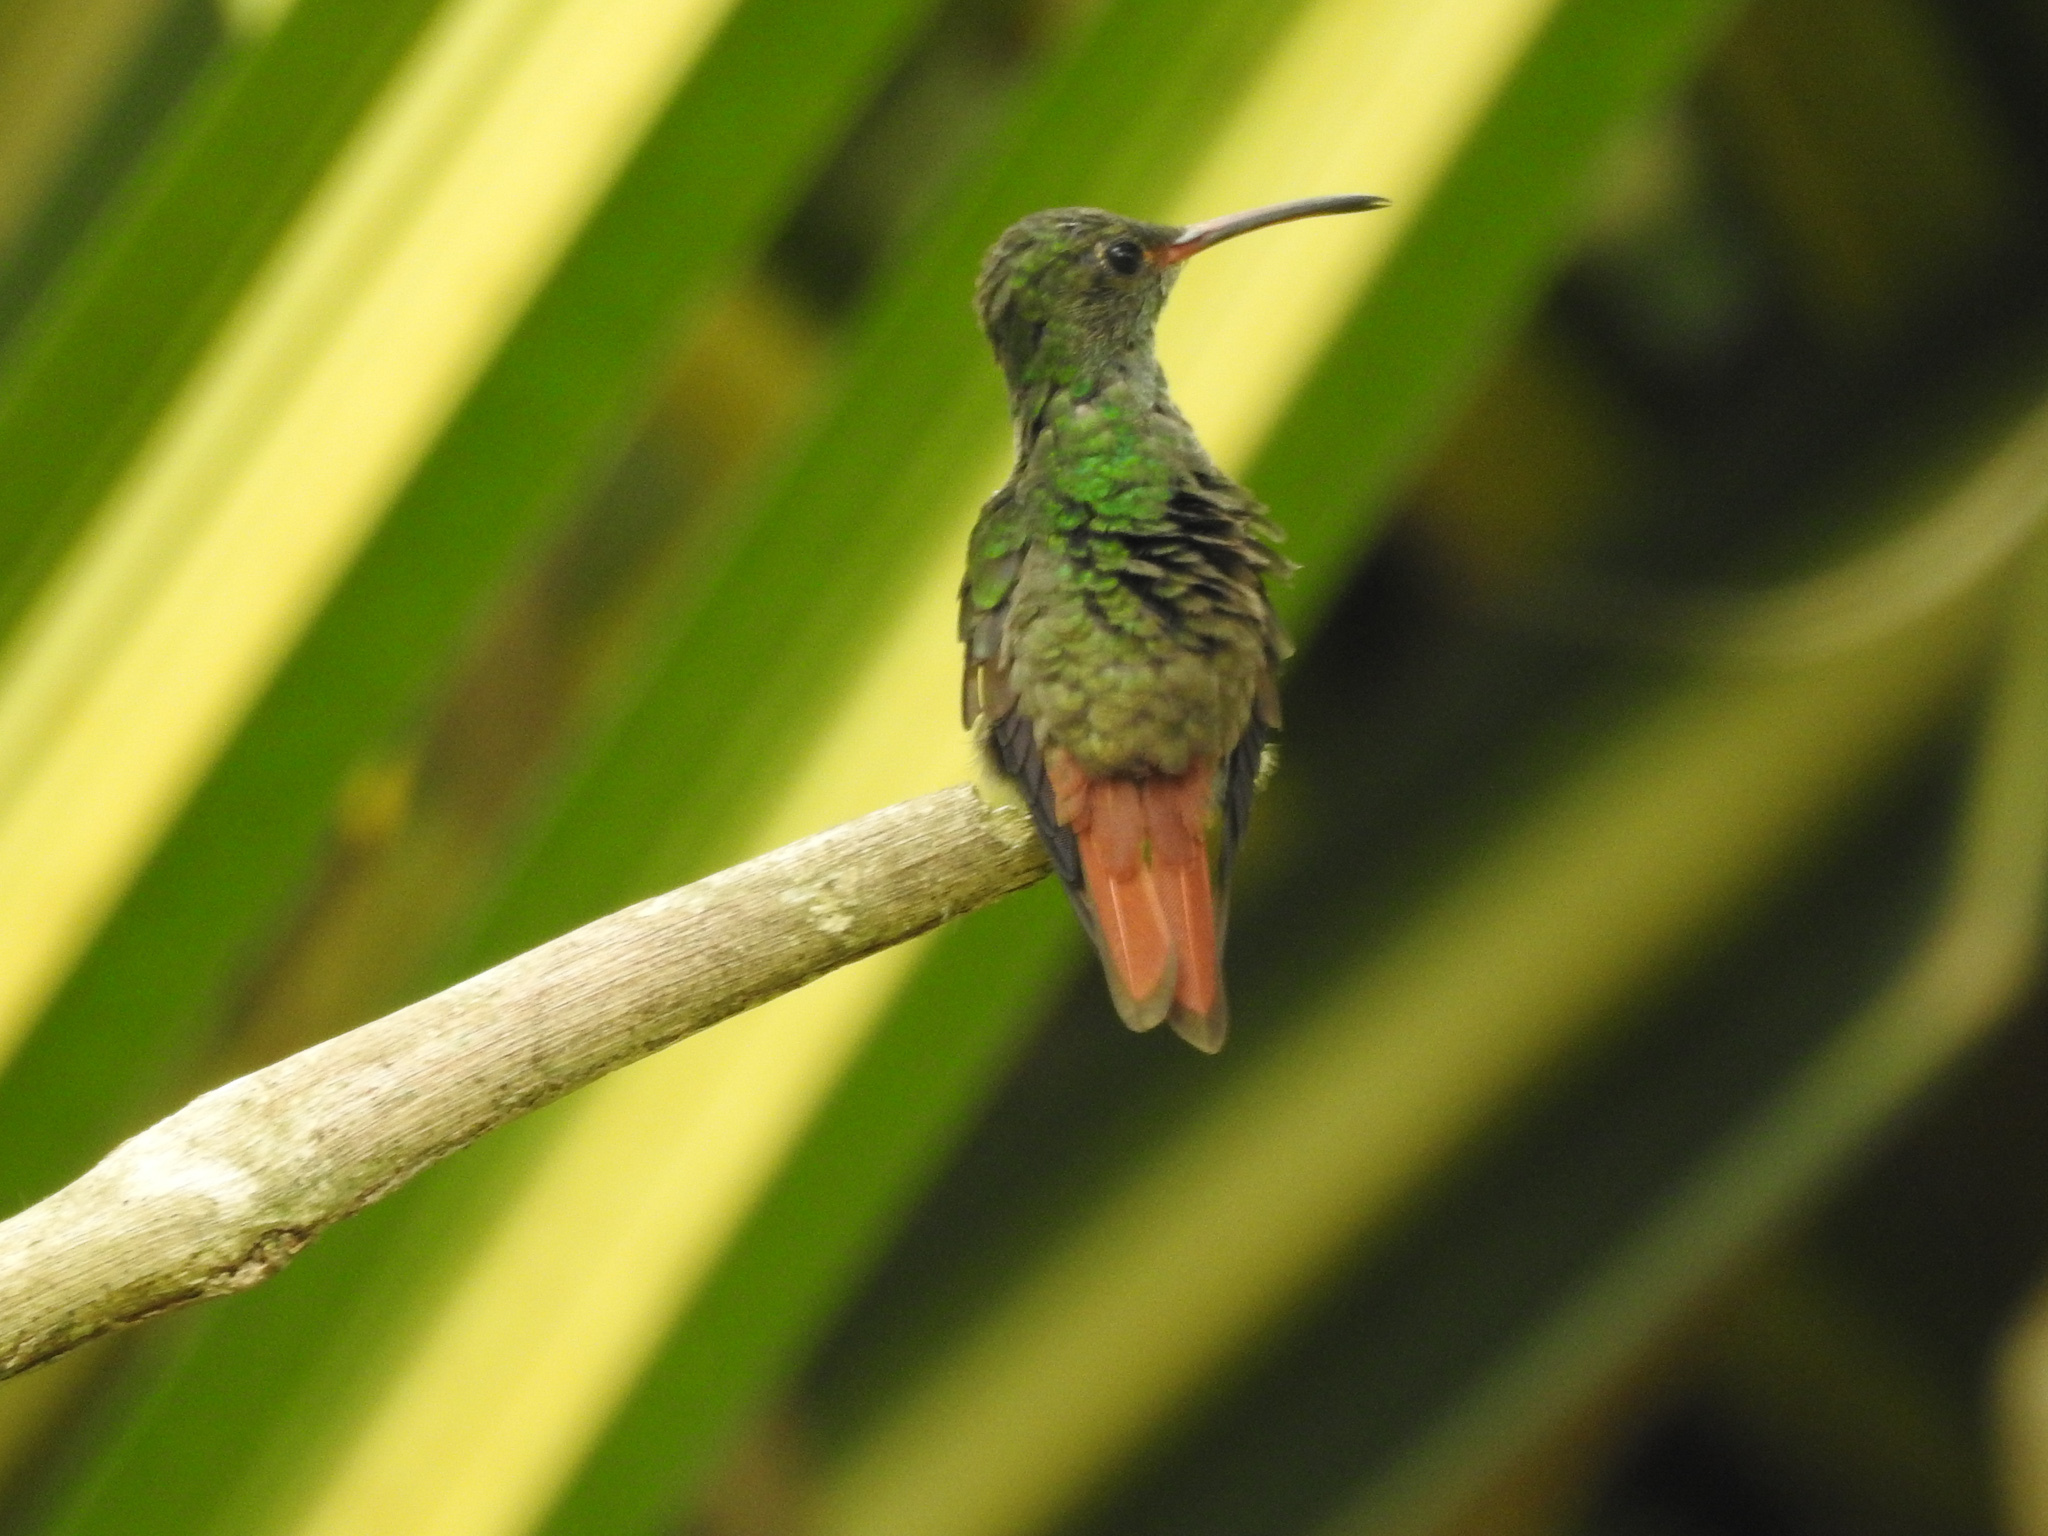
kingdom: Animalia
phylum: Chordata
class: Aves
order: Apodiformes
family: Trochilidae
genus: Amazilia
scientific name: Amazilia tzacatl
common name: Rufous-tailed hummingbird
